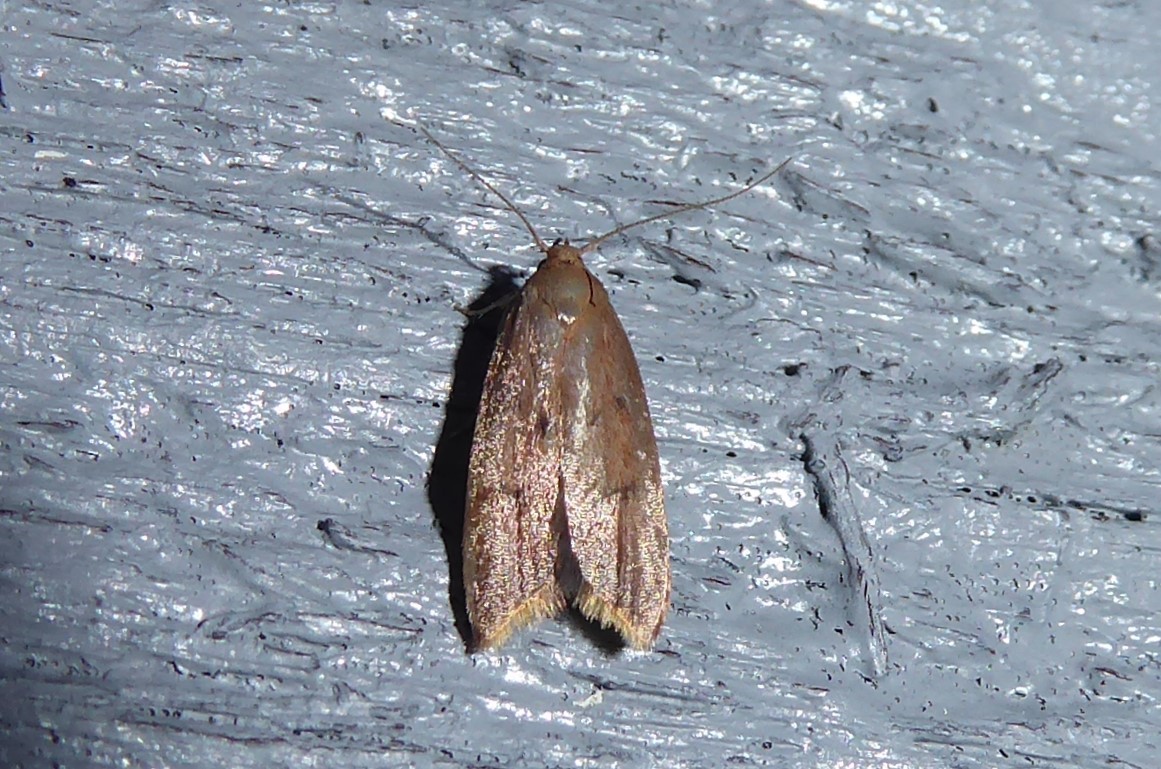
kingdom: Animalia
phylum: Arthropoda
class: Insecta
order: Lepidoptera
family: Oecophoridae
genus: Tachystola
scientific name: Tachystola acroxantha
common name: Ruddy streak
